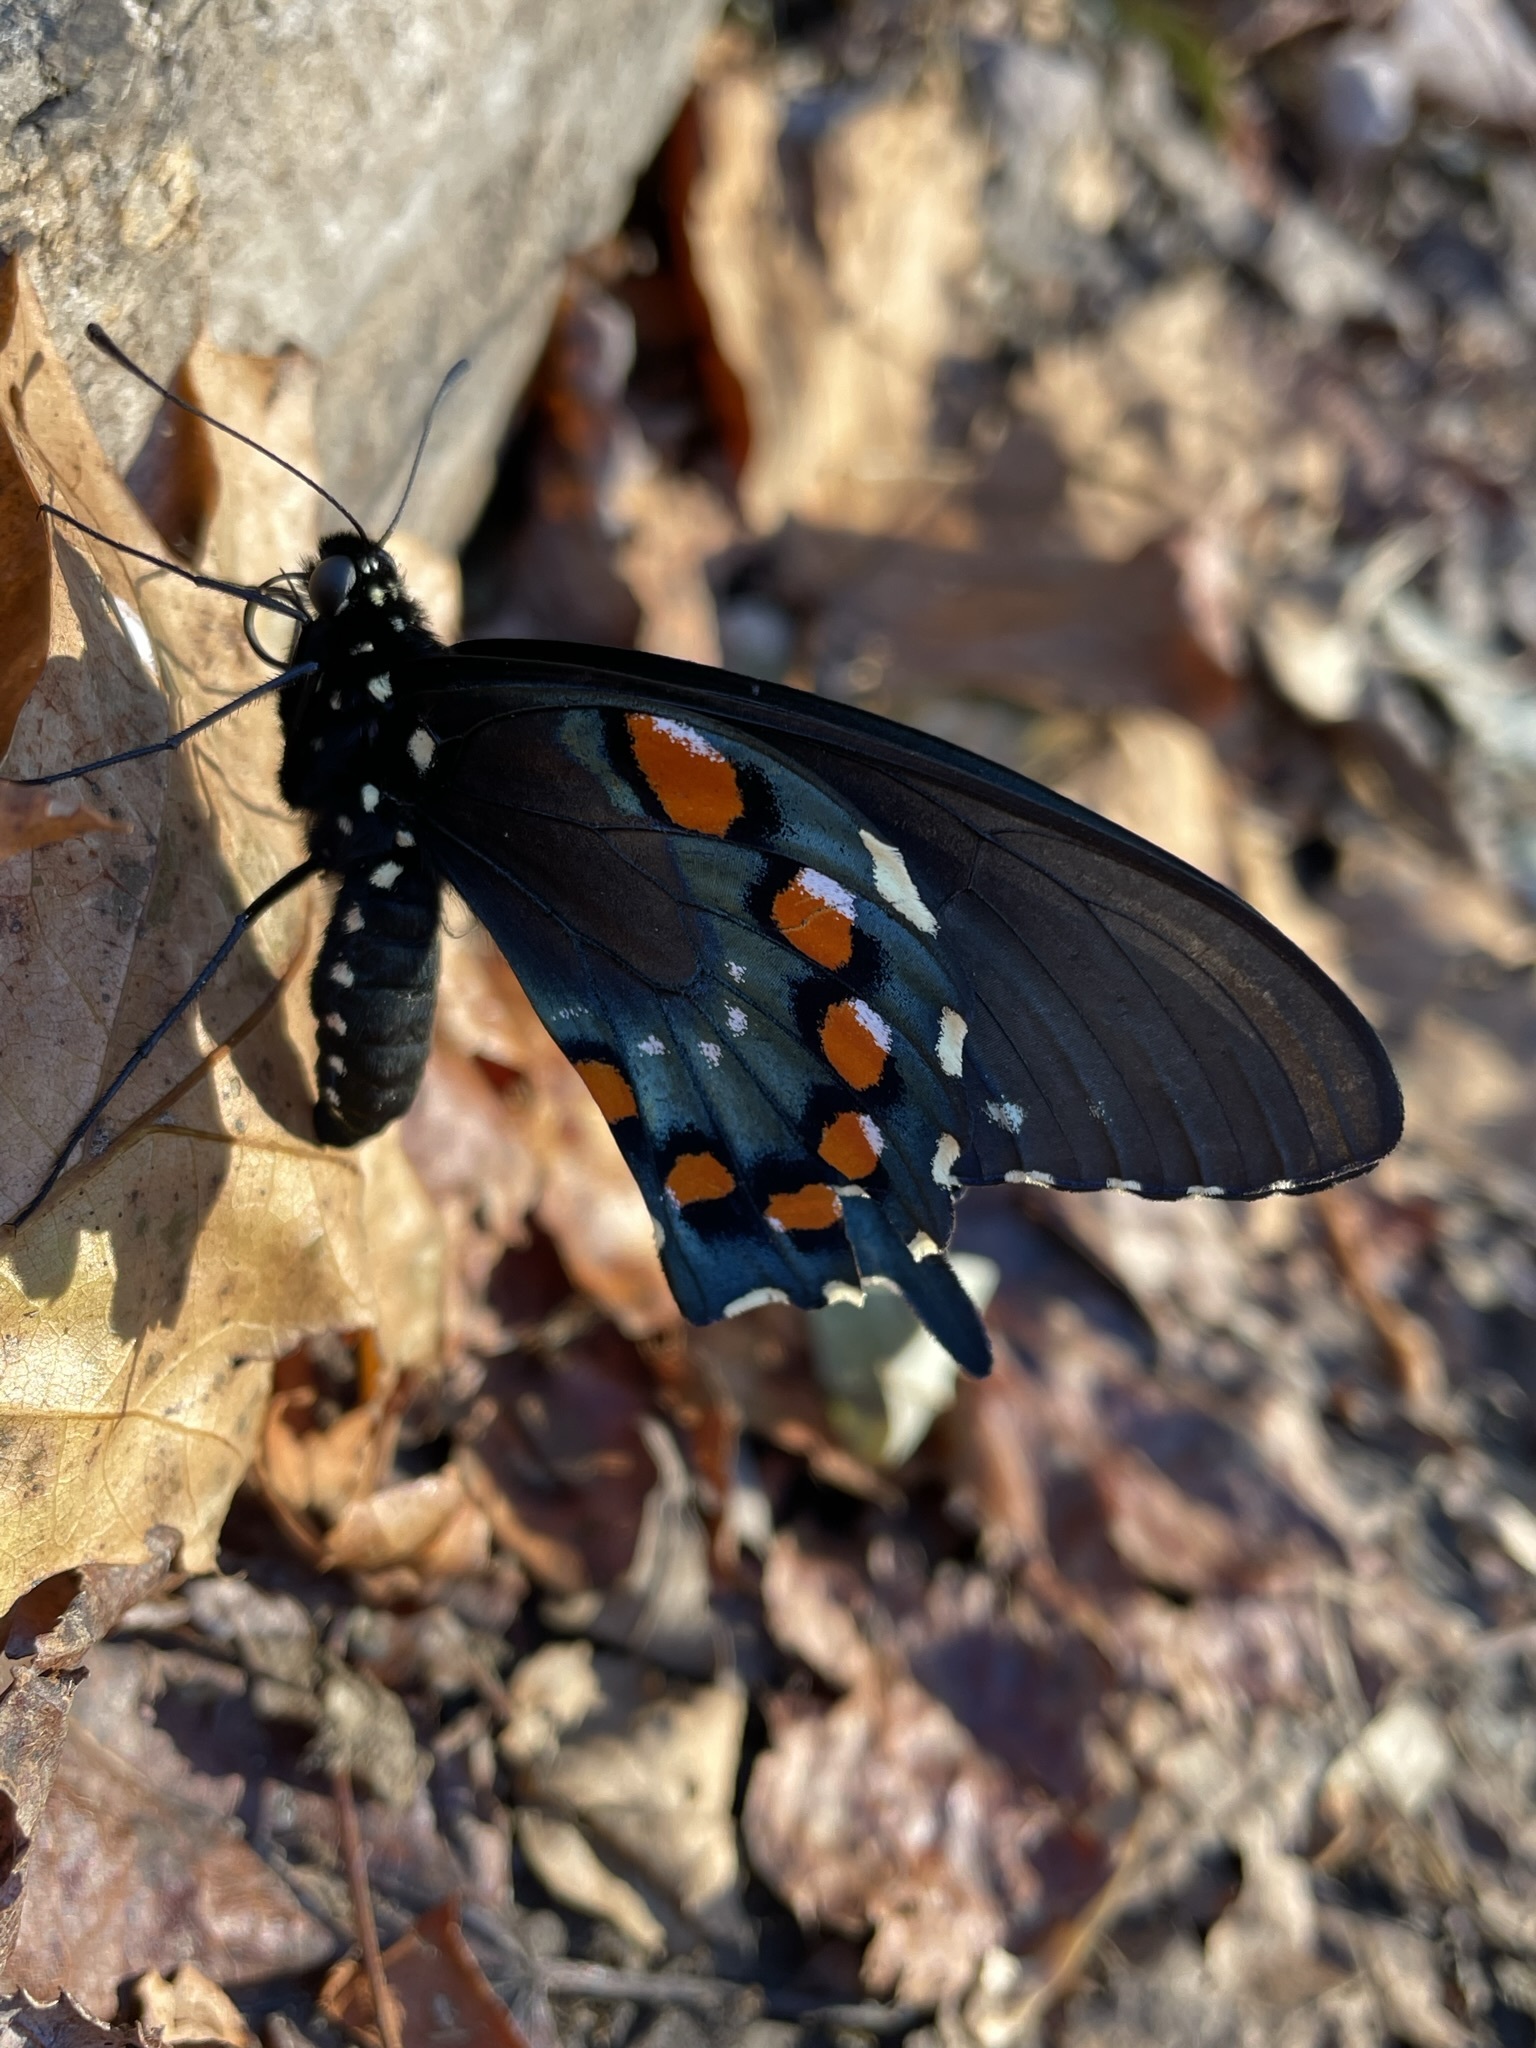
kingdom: Animalia
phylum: Arthropoda
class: Insecta
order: Lepidoptera
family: Papilionidae
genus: Battus
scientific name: Battus philenor
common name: Pipevine swallowtail
